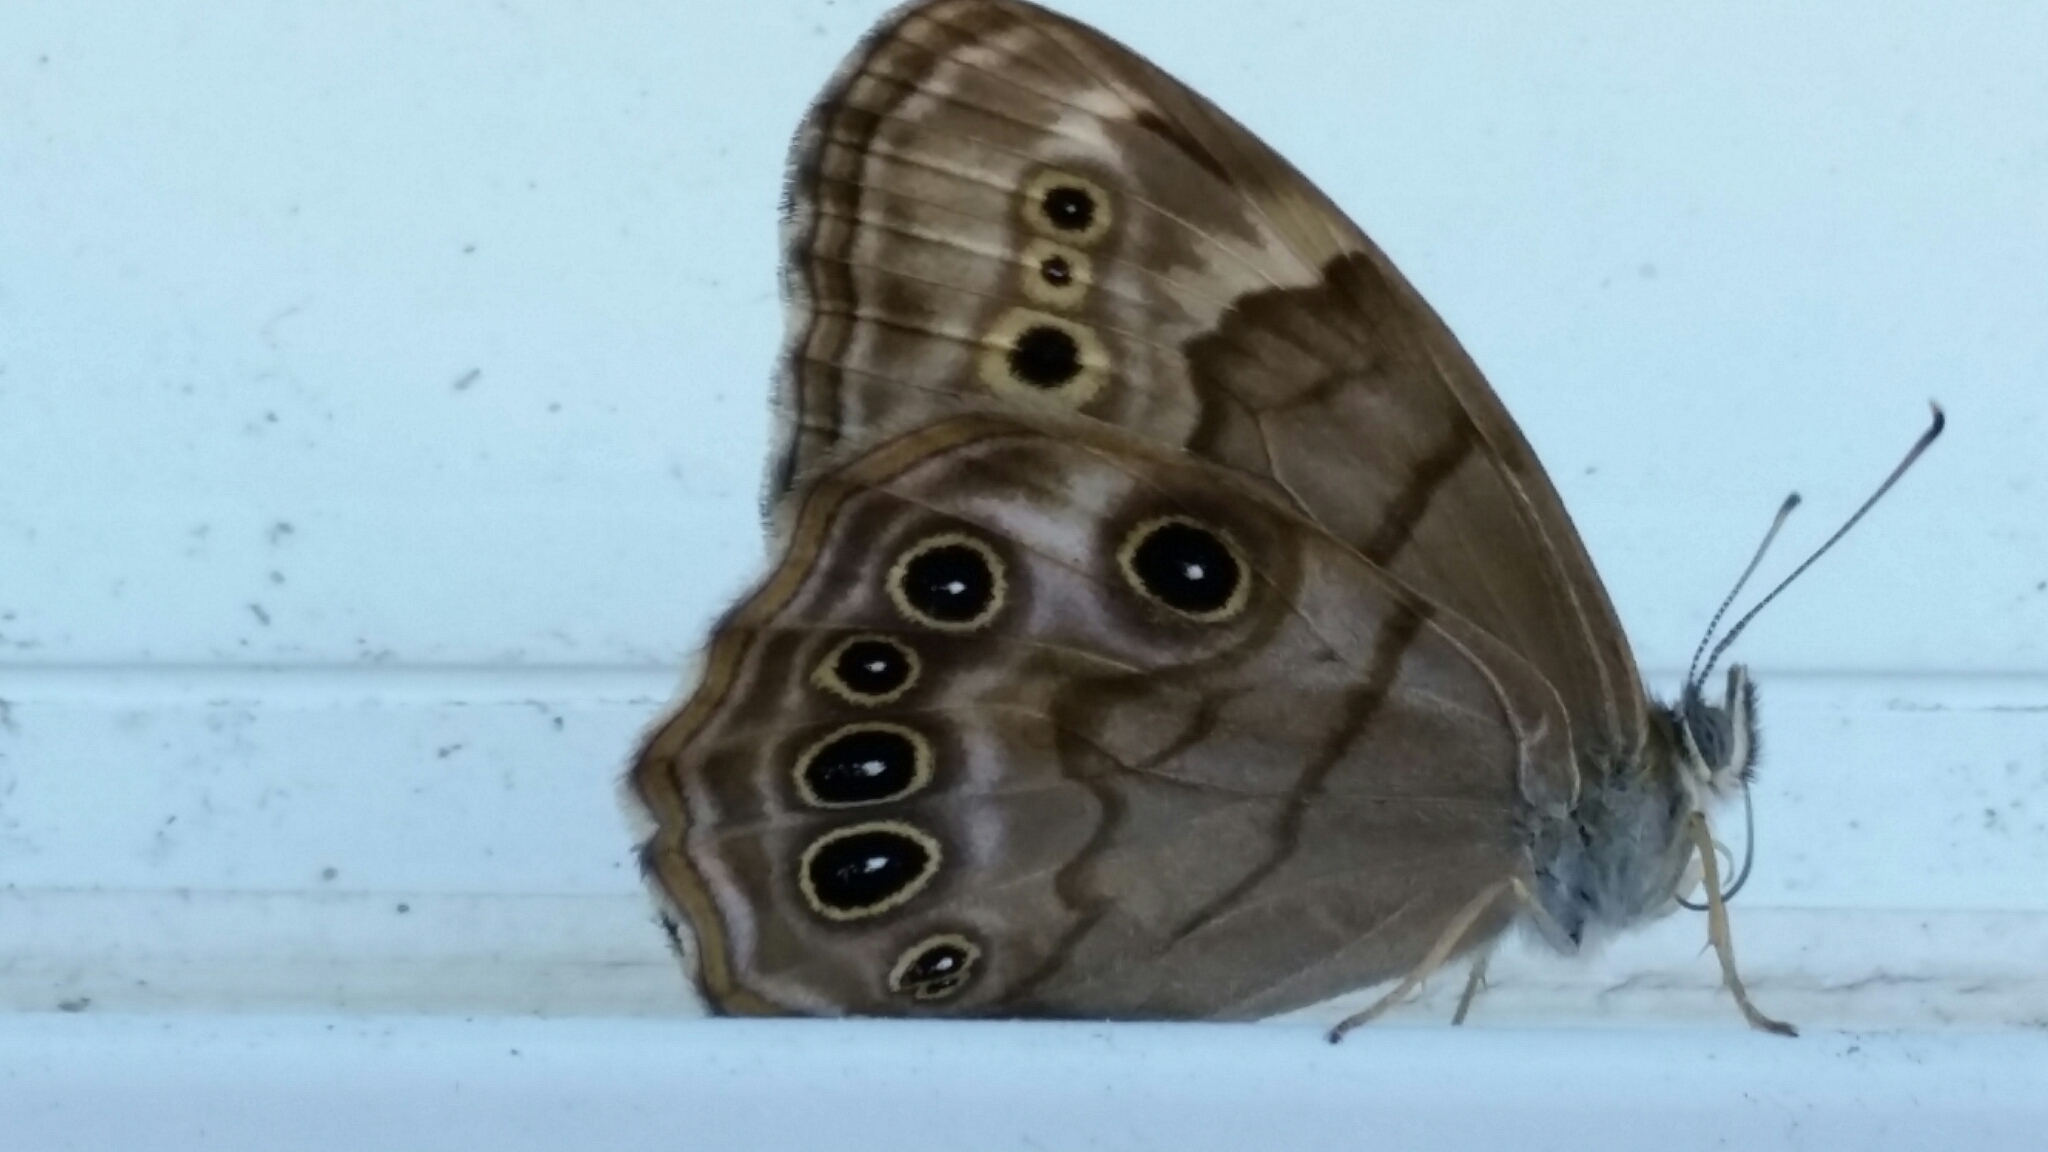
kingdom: Animalia
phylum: Arthropoda
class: Insecta
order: Lepidoptera
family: Nymphalidae
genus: Lethe
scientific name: Lethe anthedon
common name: Northern pearly-eye
